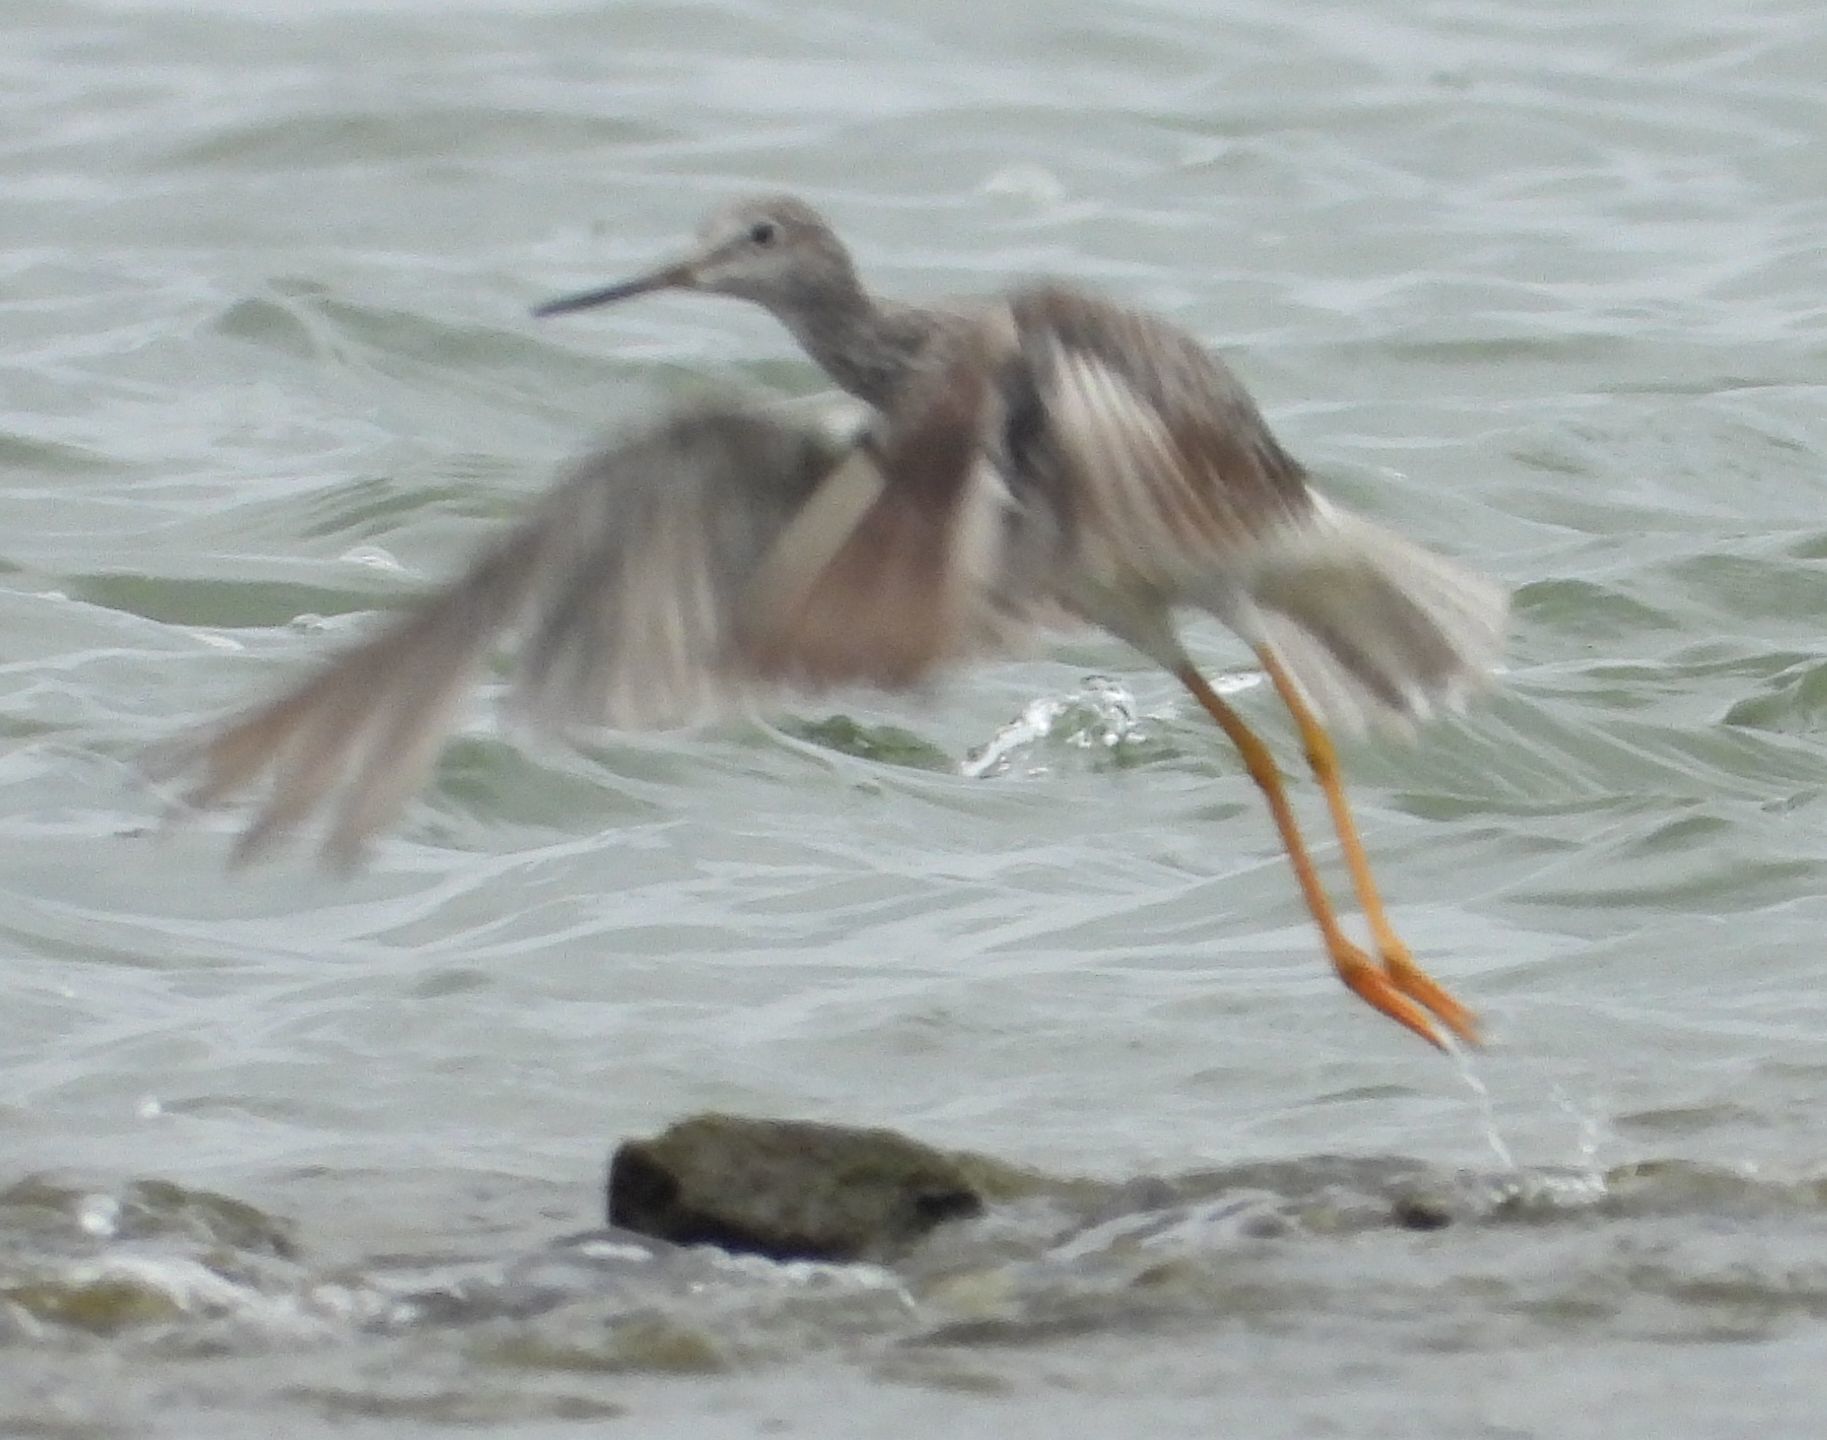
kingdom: Animalia
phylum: Chordata
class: Aves
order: Charadriiformes
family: Scolopacidae
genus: Tringa
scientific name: Tringa melanoleuca
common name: Greater yellowlegs
